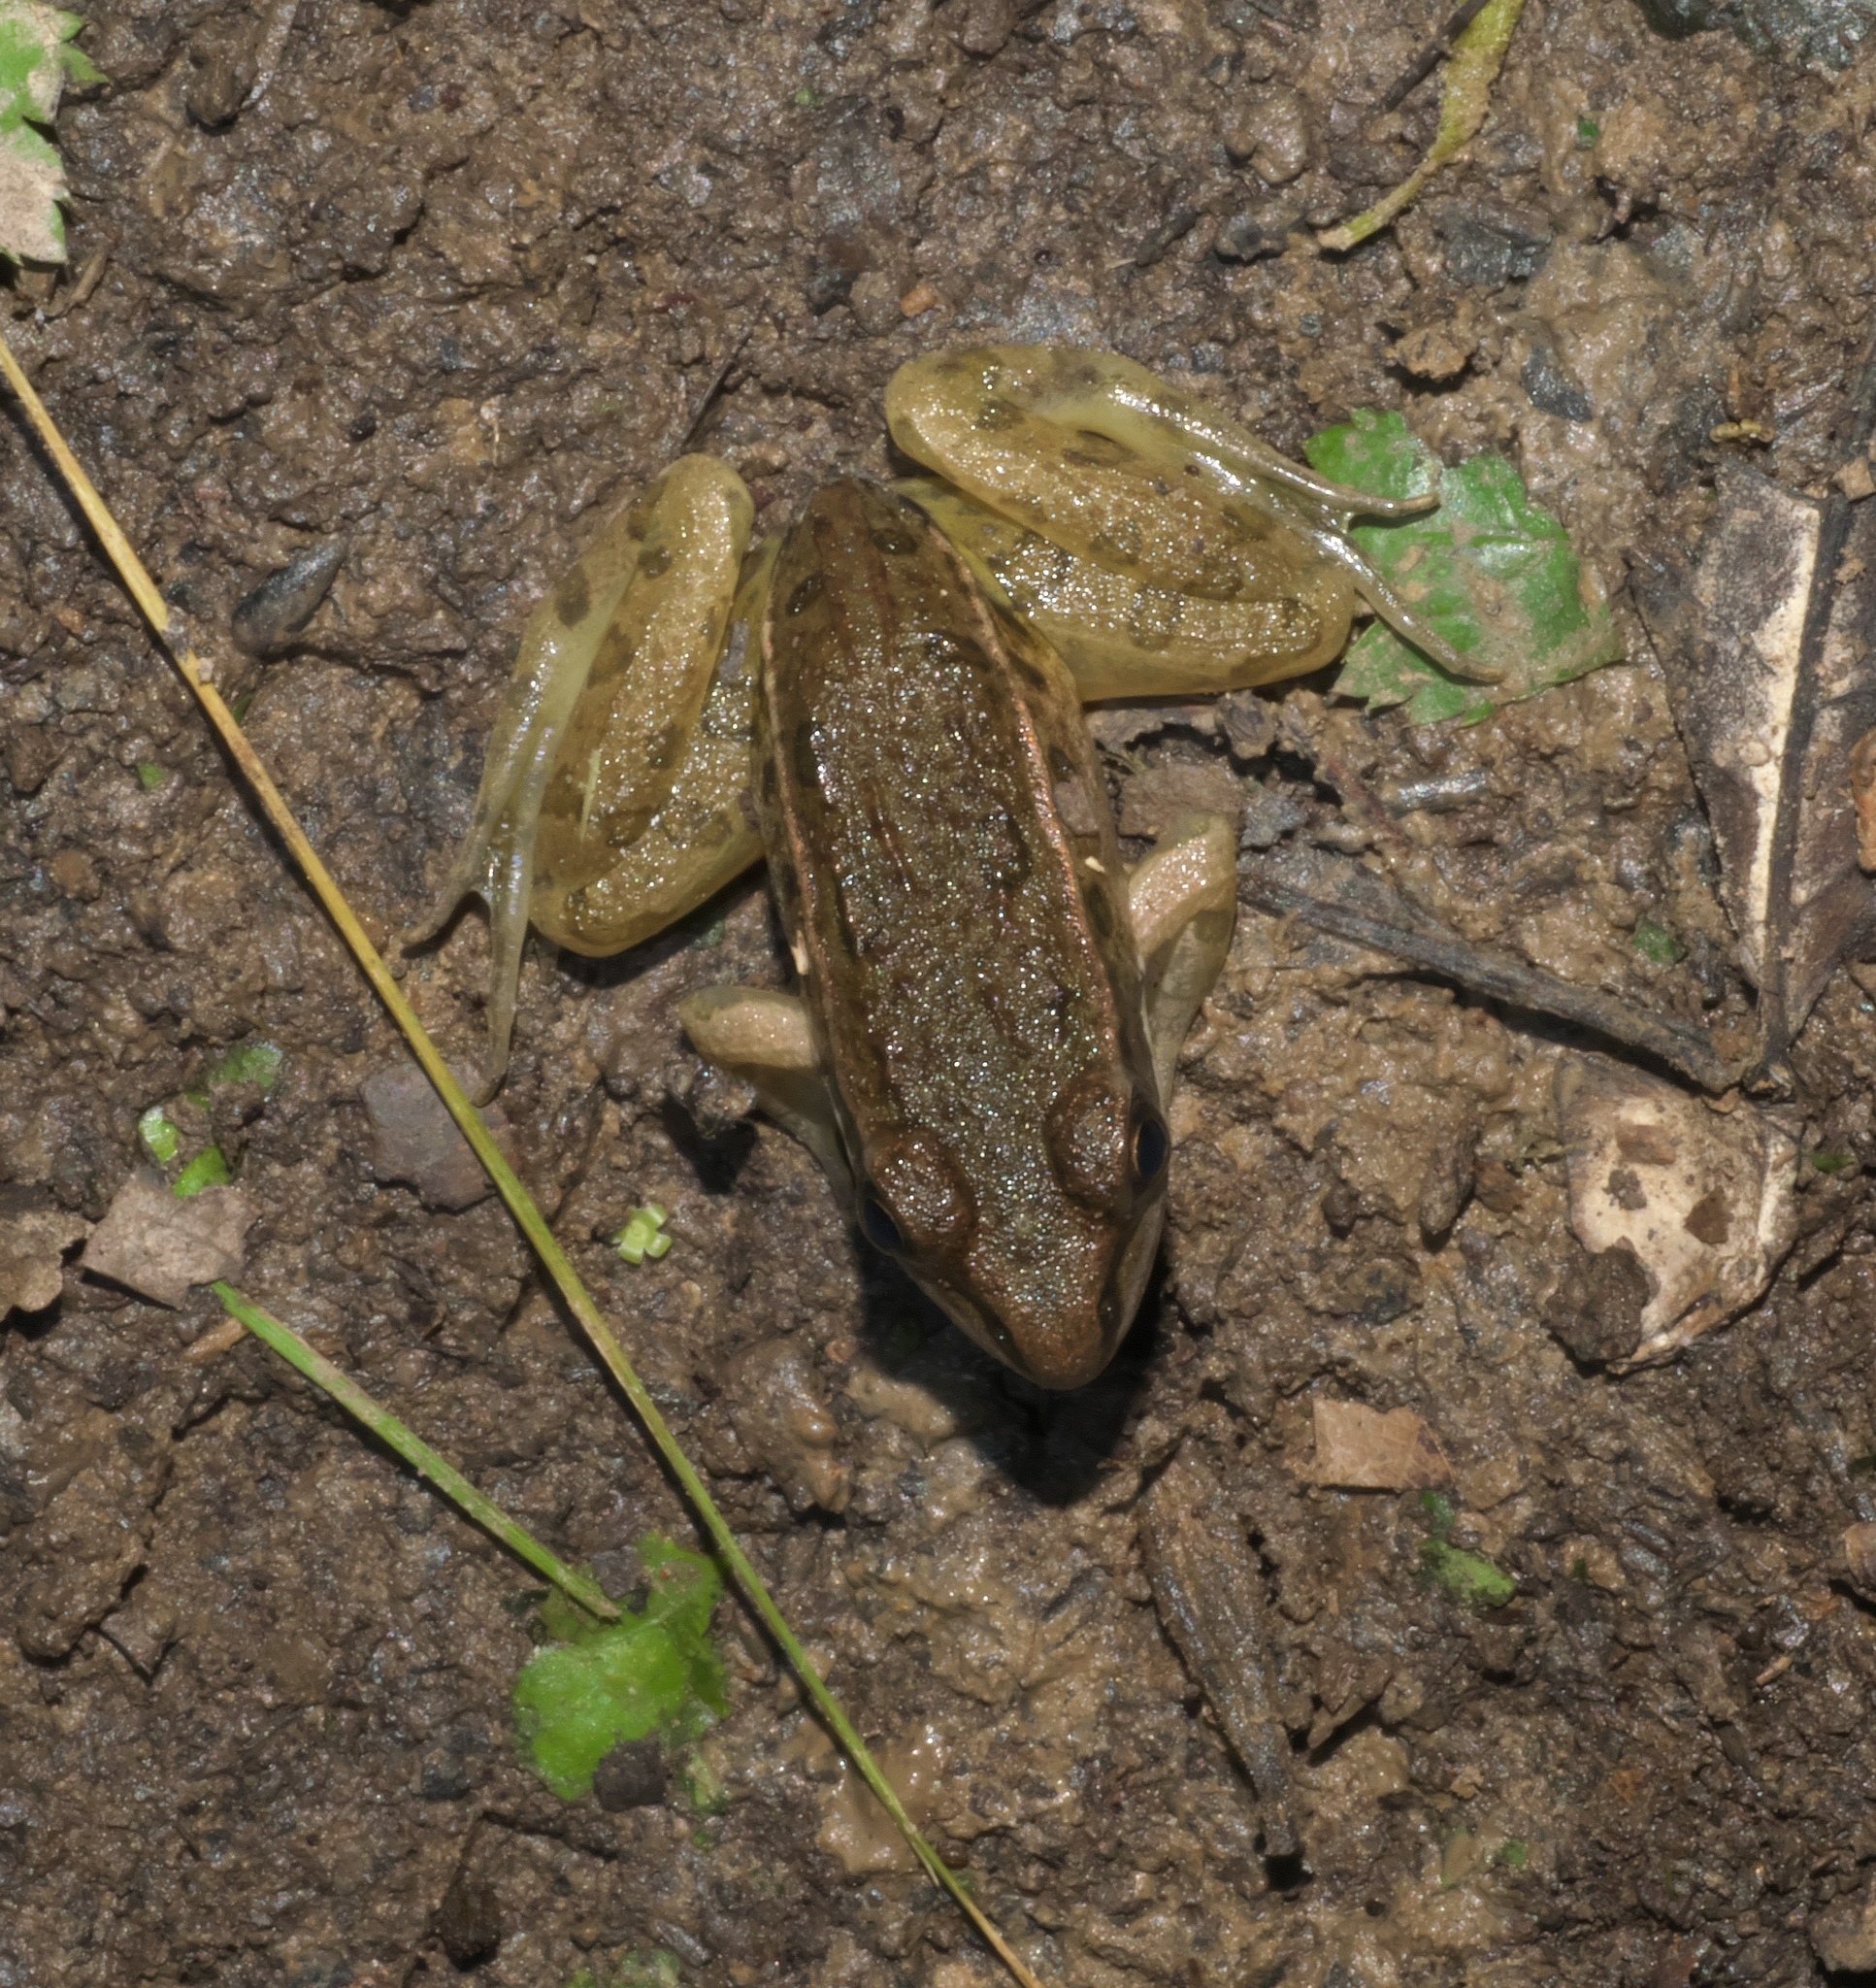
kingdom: Animalia
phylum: Chordata
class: Amphibia
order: Anura
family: Ranidae
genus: Lithobates
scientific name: Lithobates sphenocephalus
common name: Southern leopard frog
